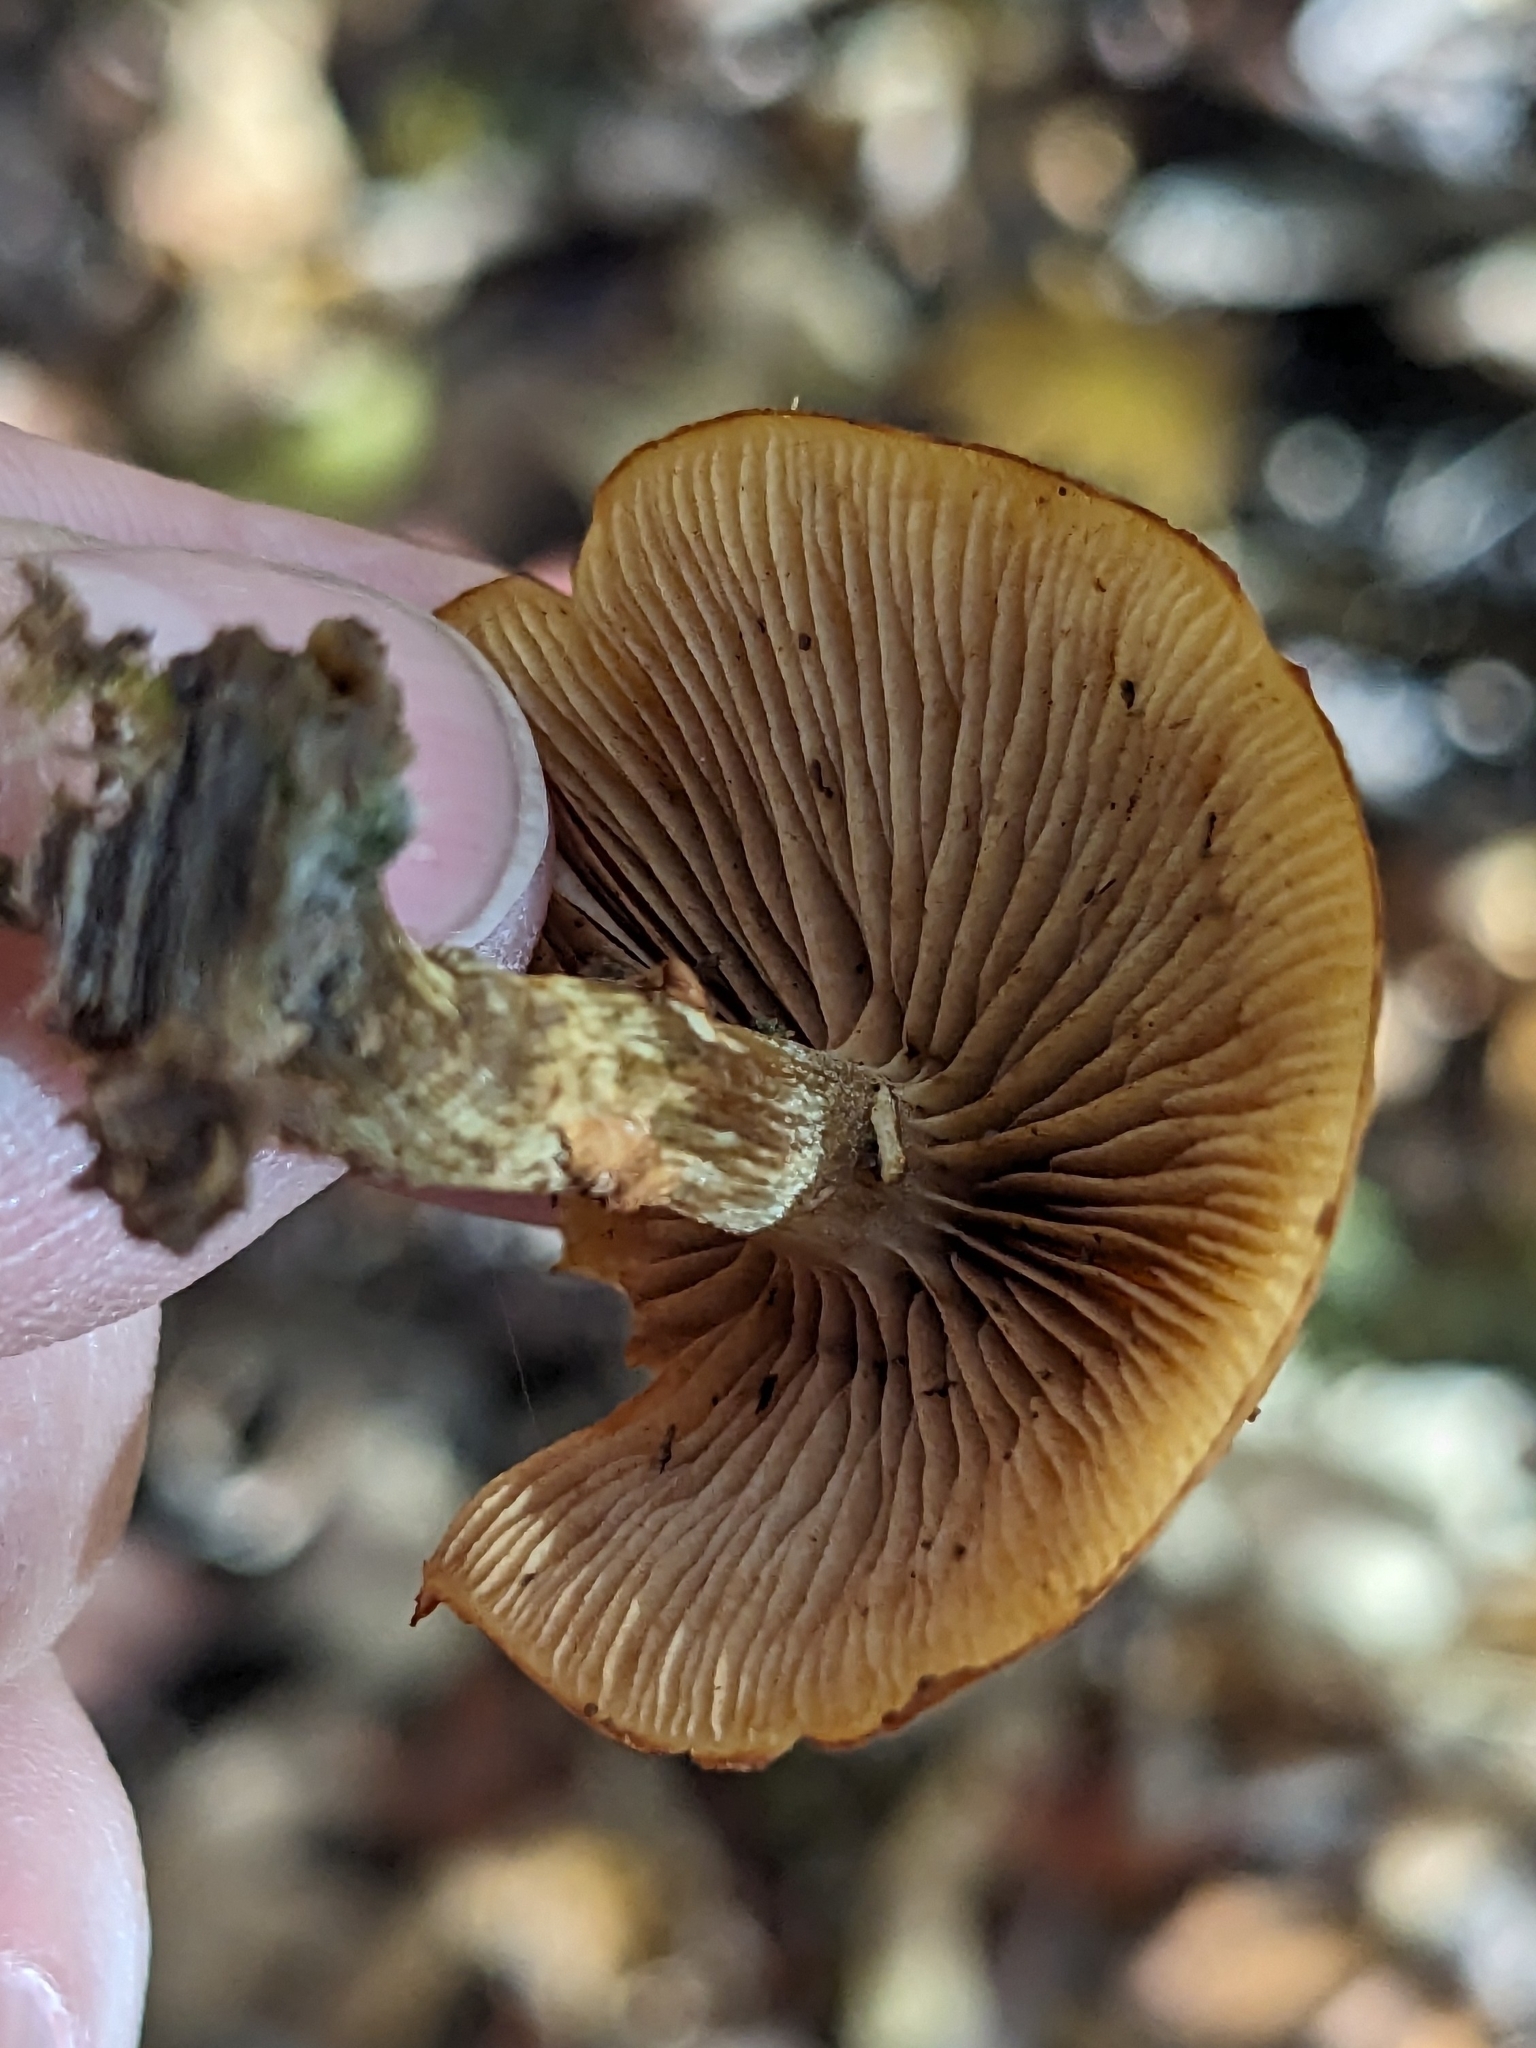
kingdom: Fungi
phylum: Basidiomycota
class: Agaricomycetes
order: Agaricales
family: Hymenogastraceae
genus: Galerina
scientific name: Galerina marginata
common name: Funeral bell
